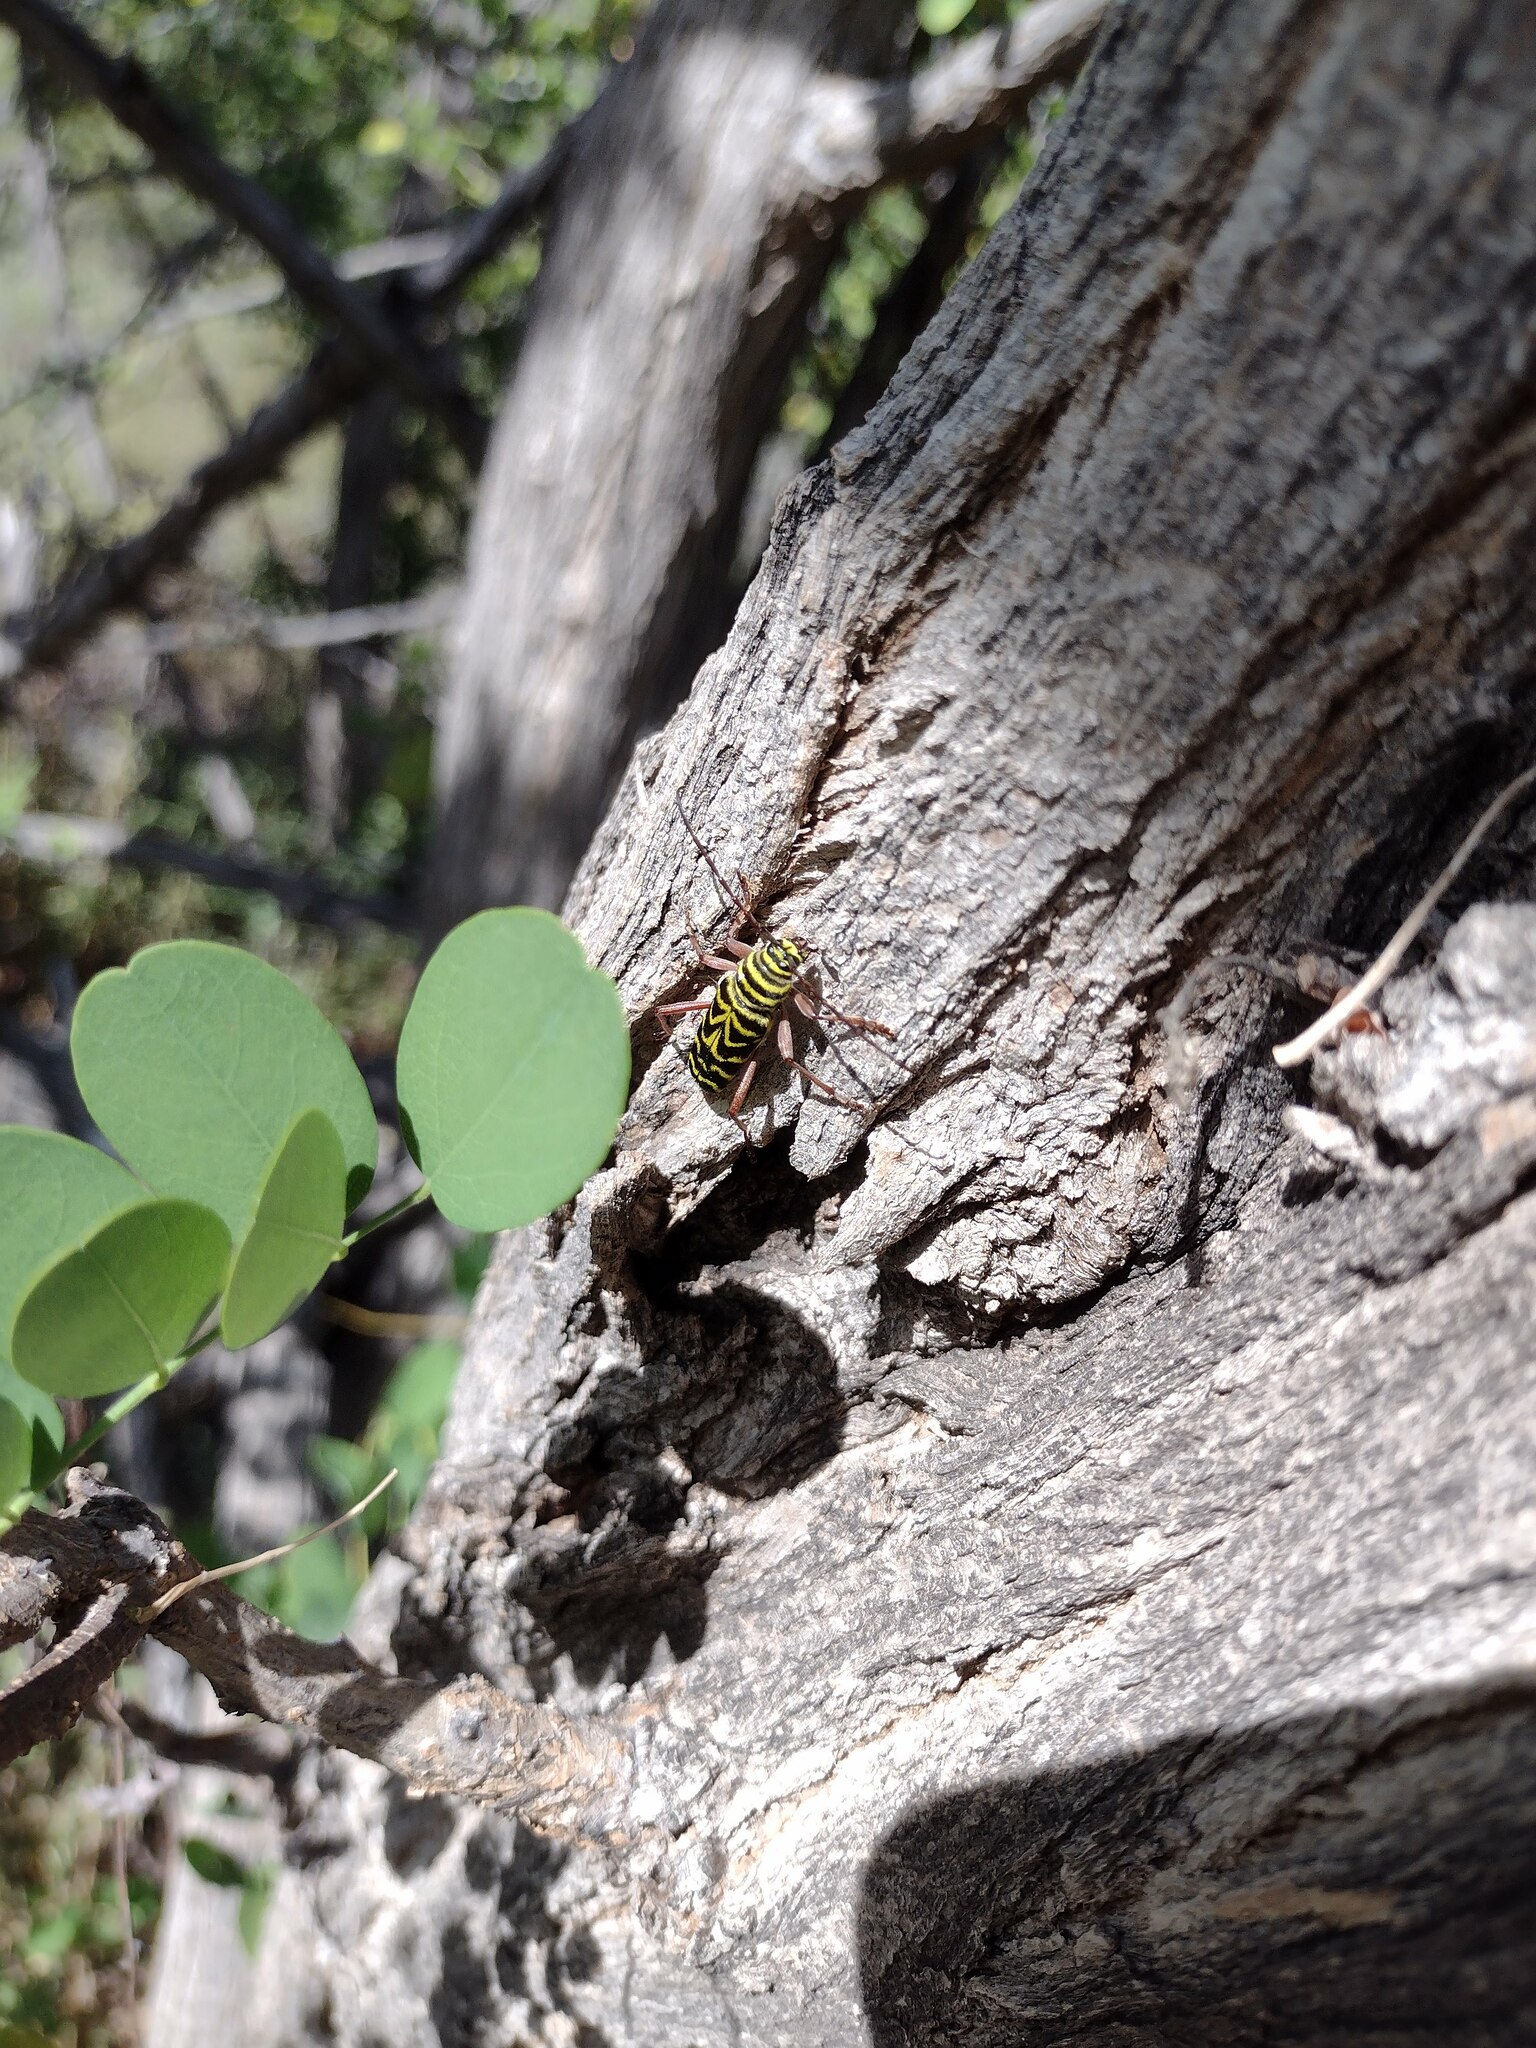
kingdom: Animalia
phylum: Arthropoda
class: Insecta
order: Coleoptera
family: Cerambycidae
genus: Megacyllene
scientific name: Megacyllene robiniae
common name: Locust borer
